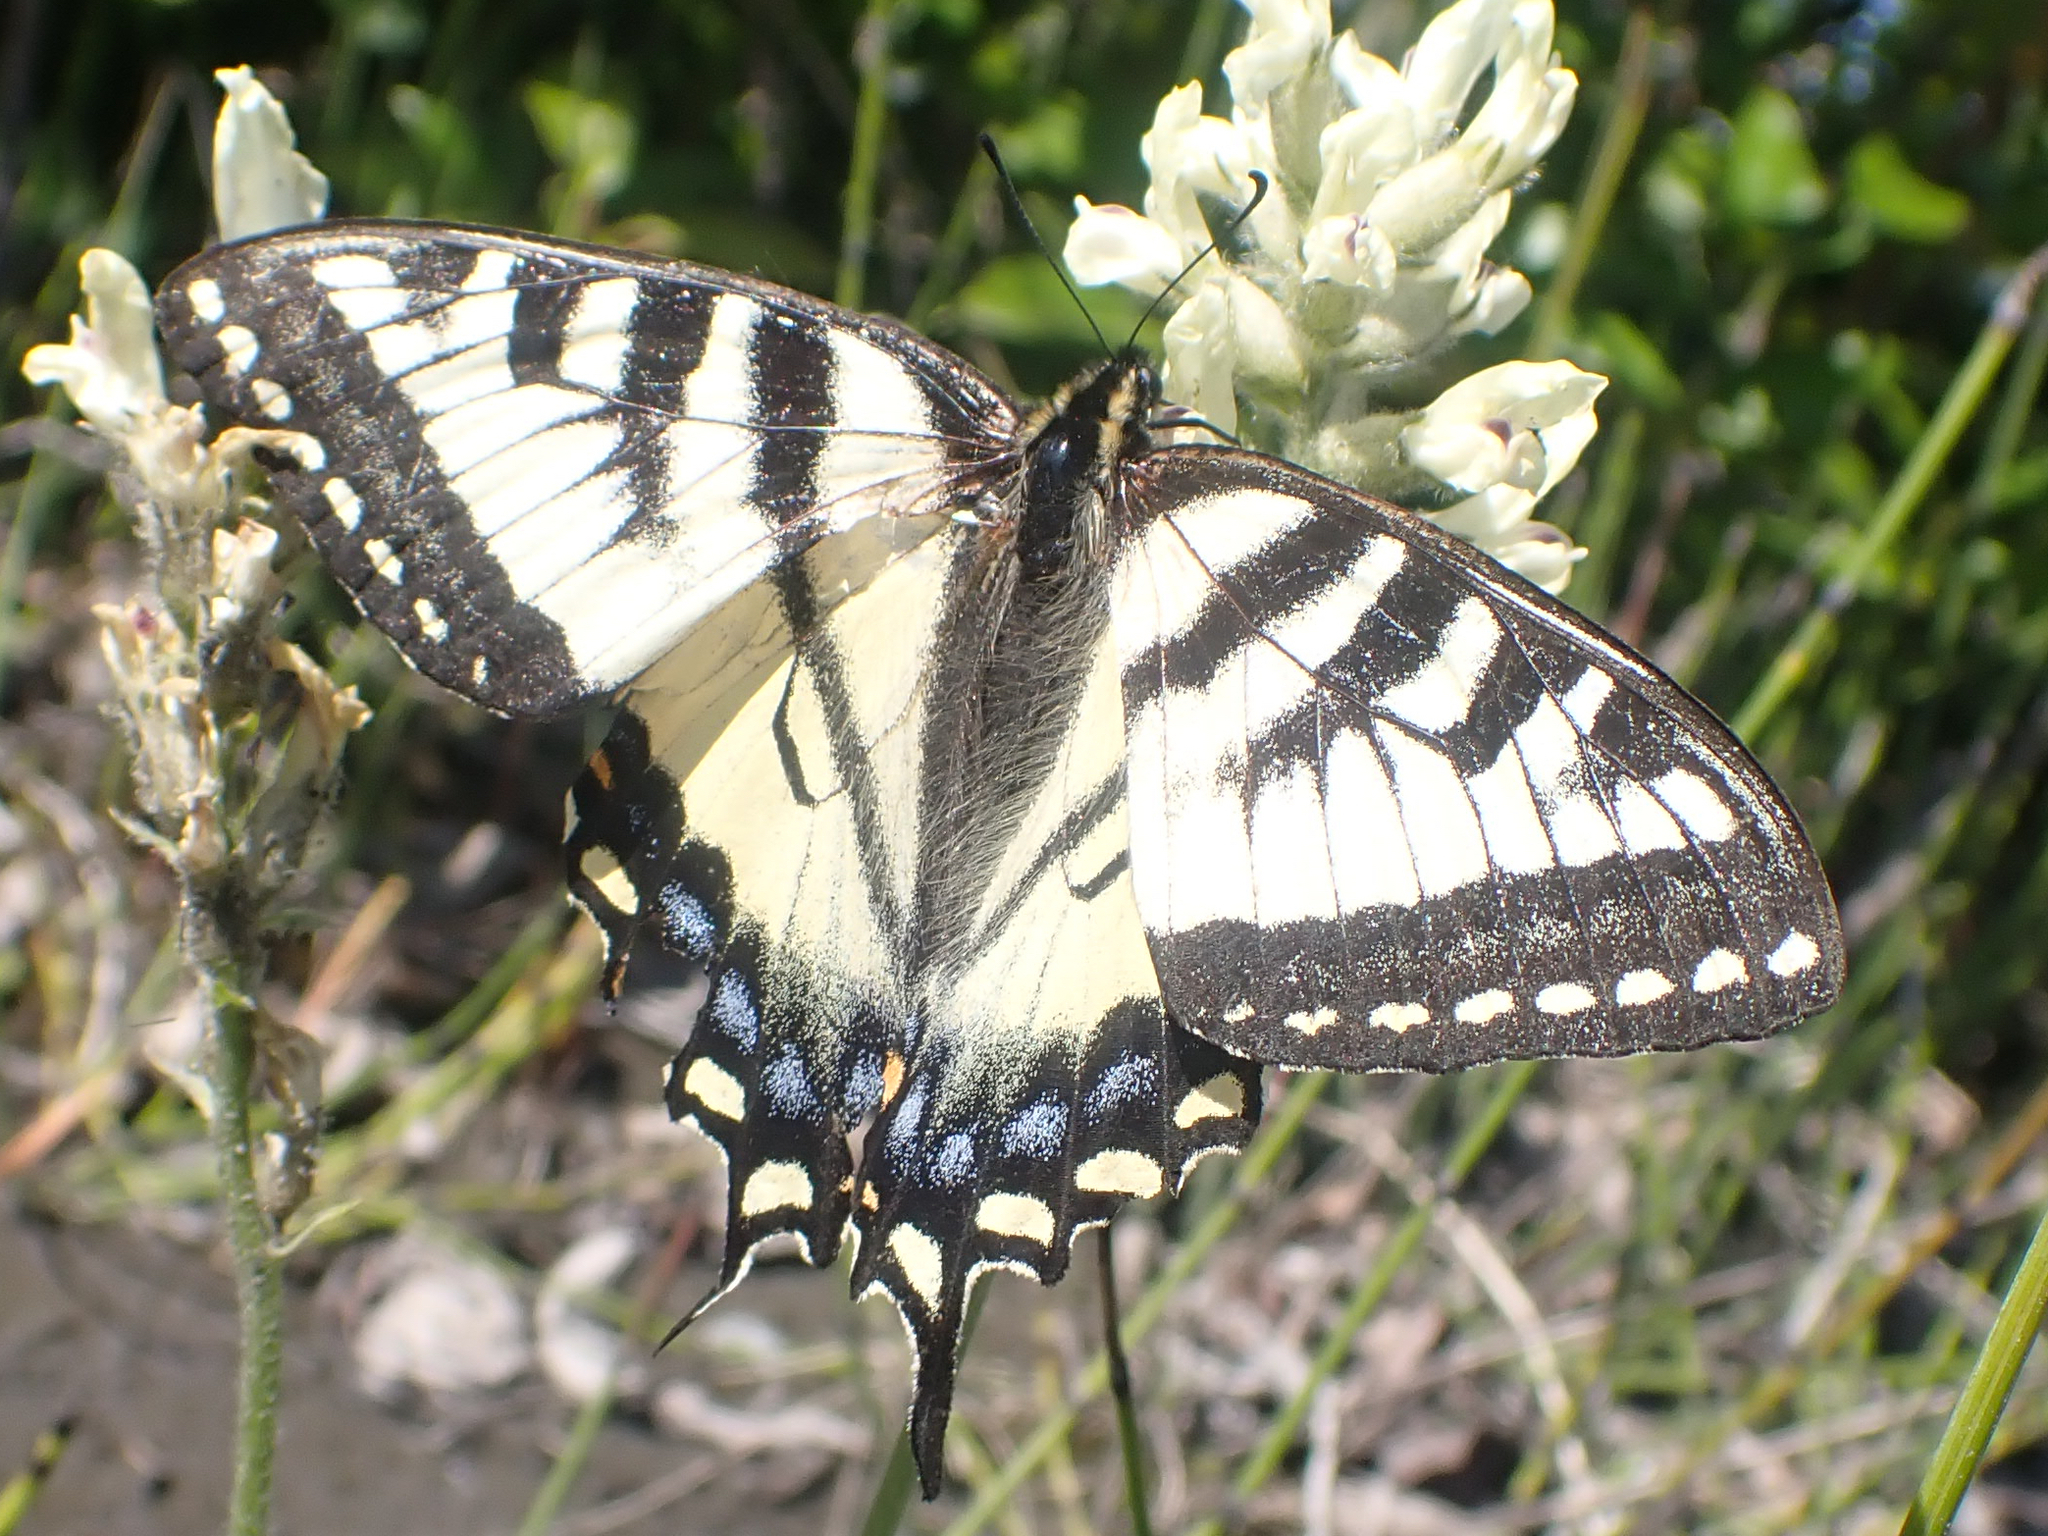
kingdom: Animalia
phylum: Arthropoda
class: Insecta
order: Lepidoptera
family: Papilionidae
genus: Papilio
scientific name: Papilio canadensis
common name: Canadian tiger swallowtail
